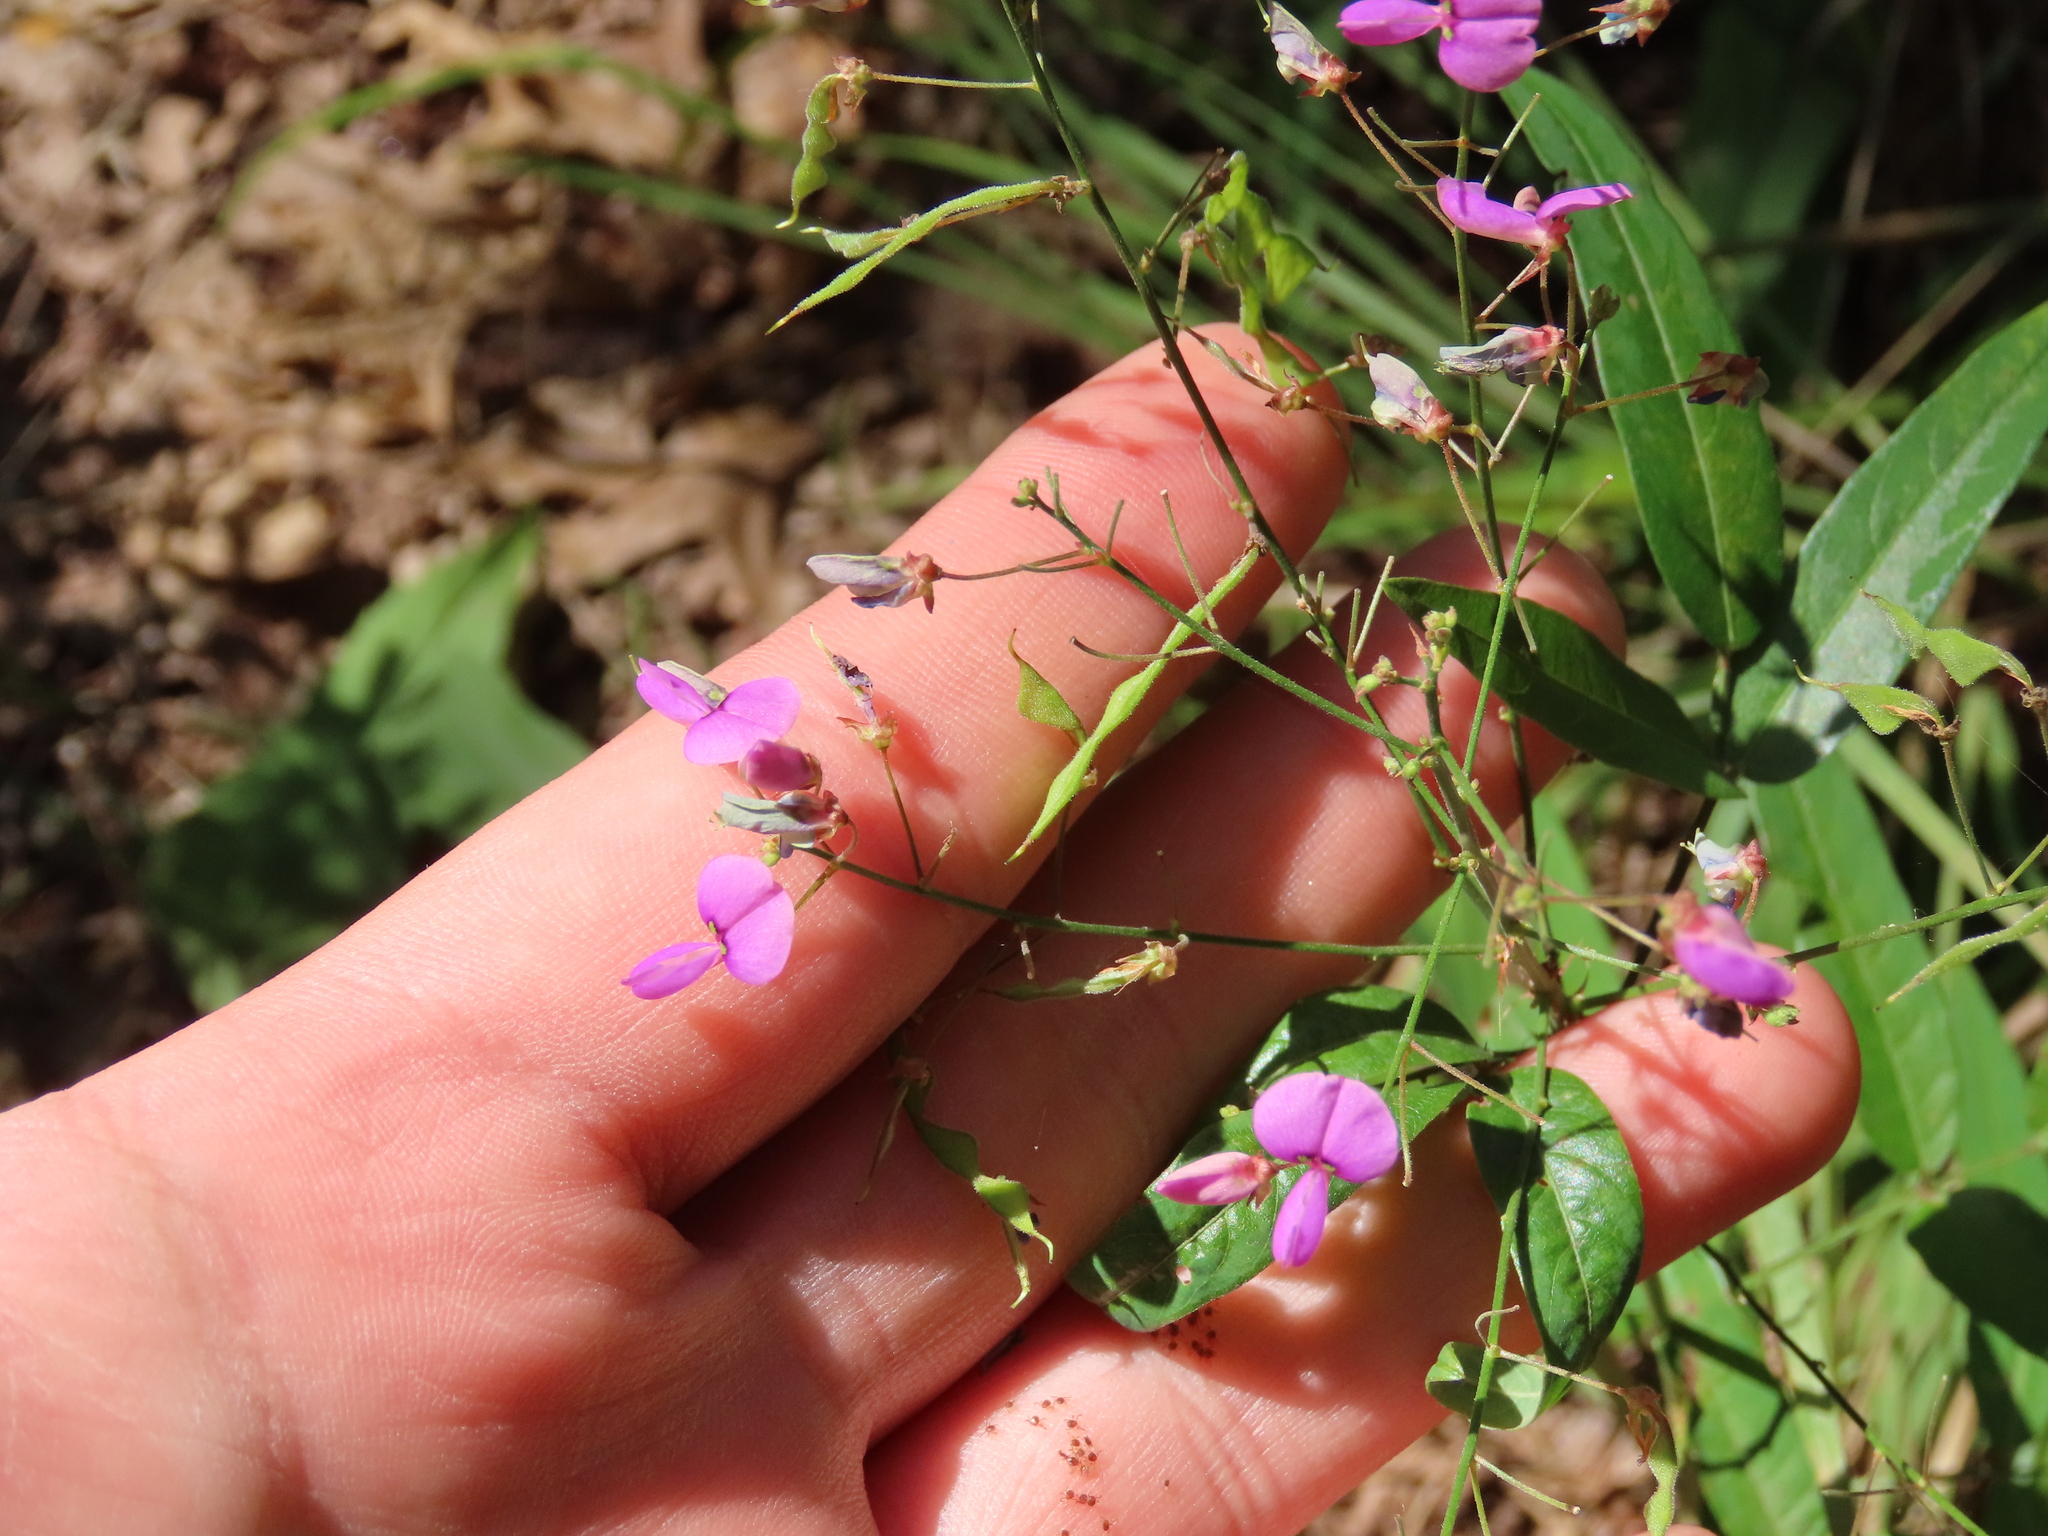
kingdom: Plantae
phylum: Tracheophyta
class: Magnoliopsida
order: Fabales
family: Fabaceae
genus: Desmodium
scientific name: Desmodium paniculatum
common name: Panicled tick-clover
